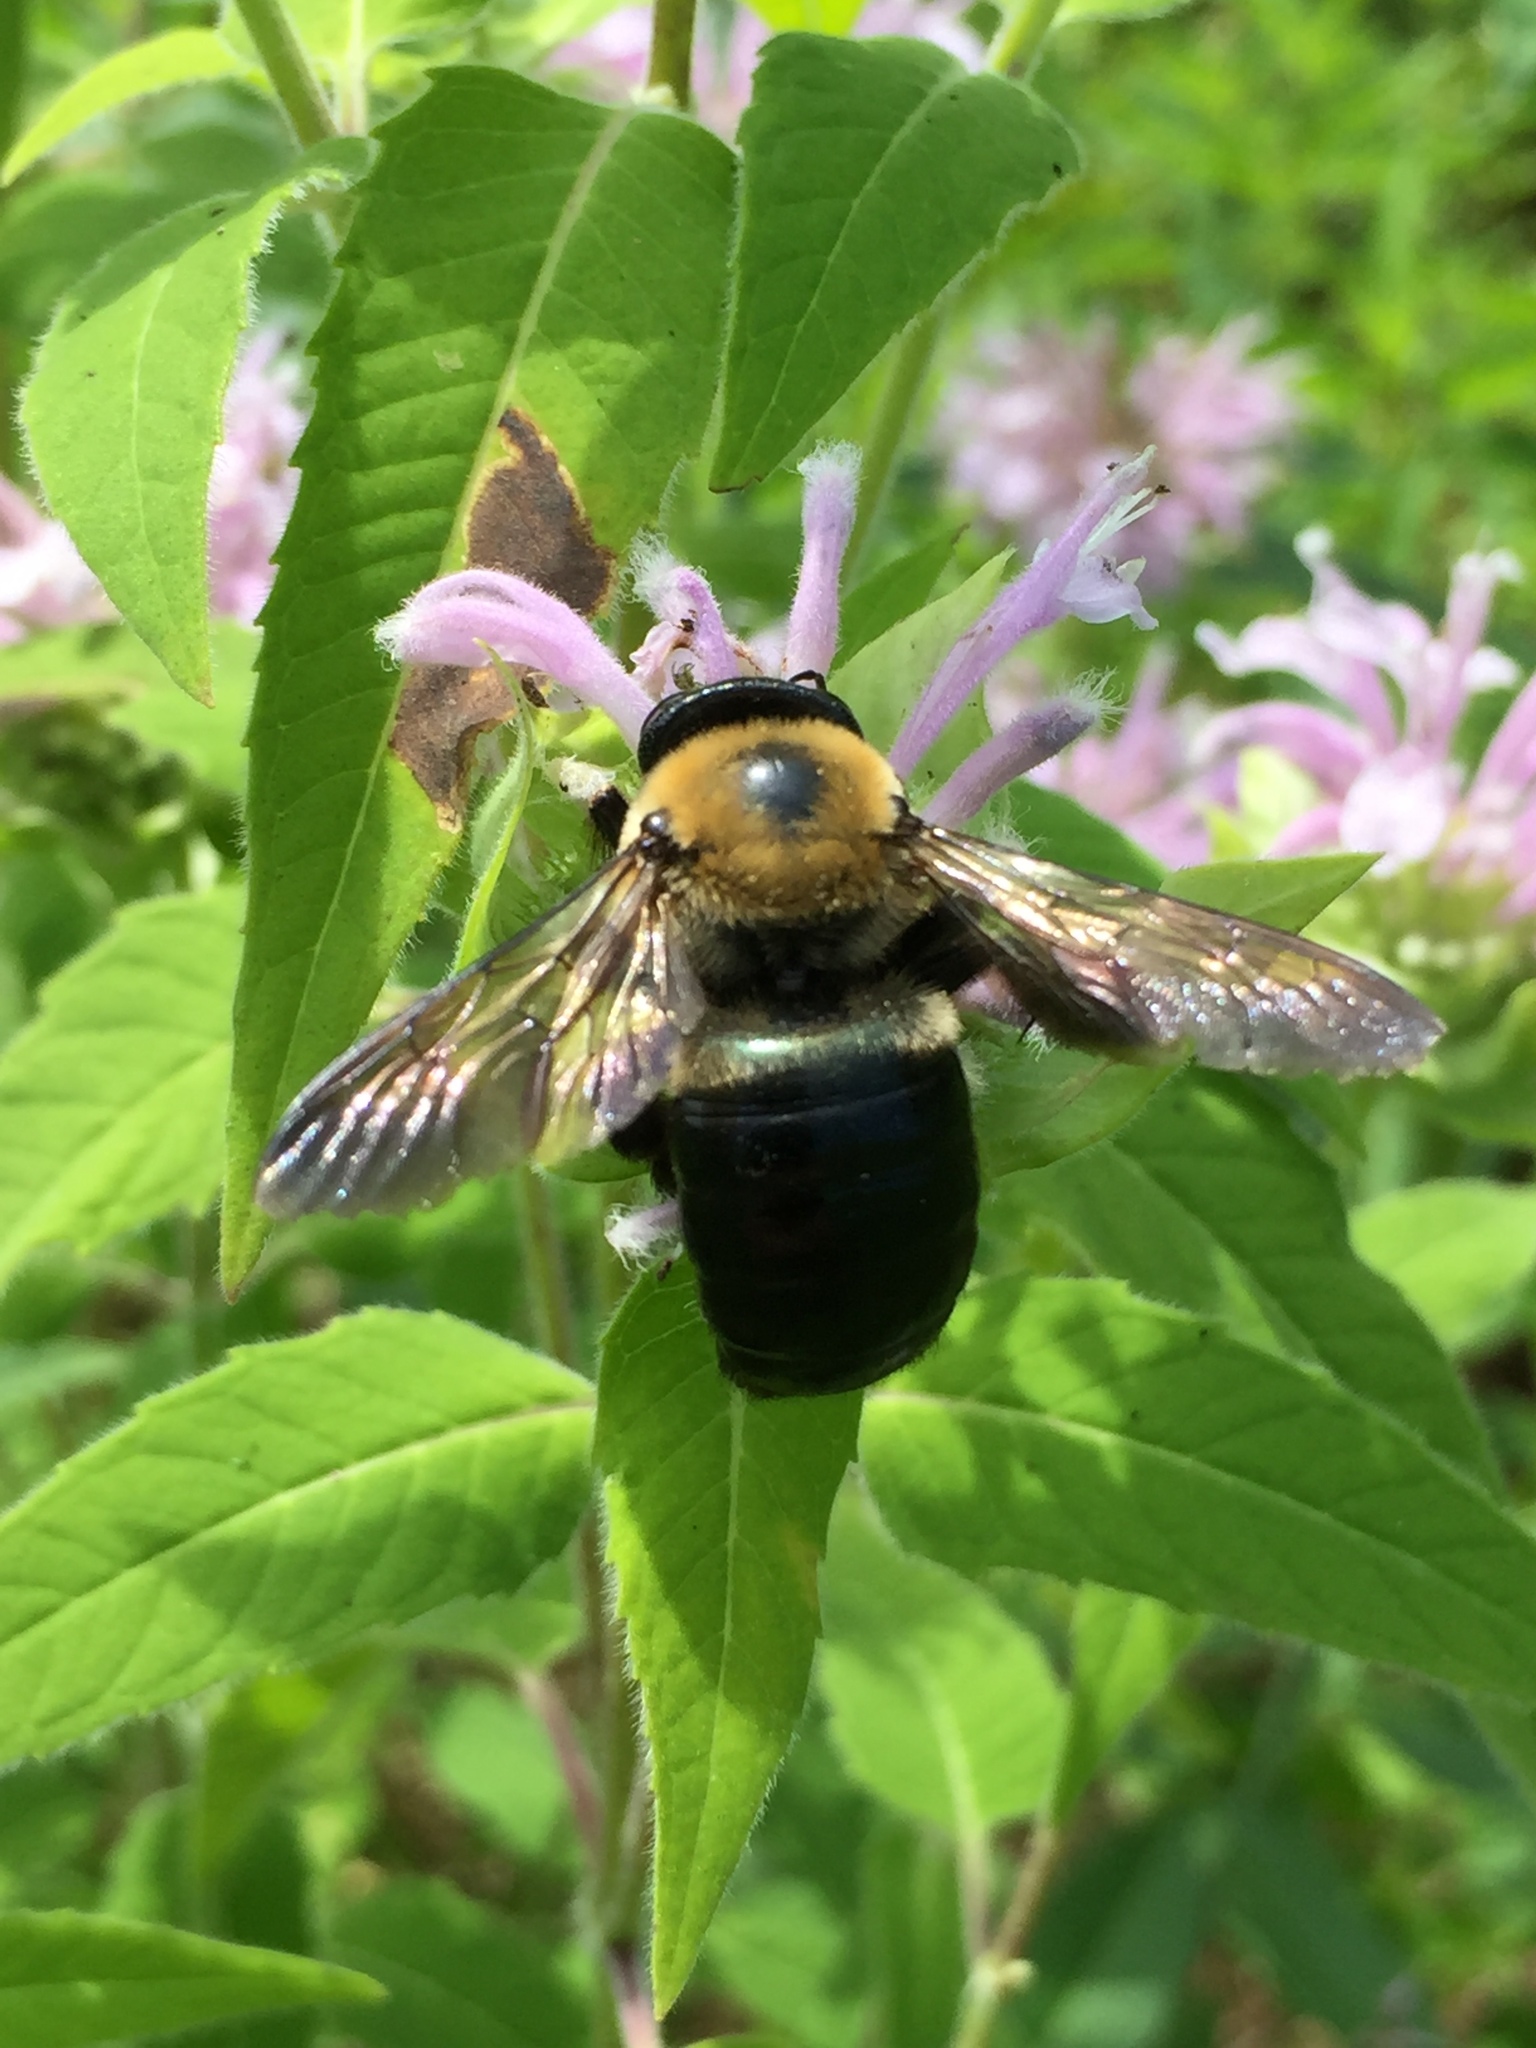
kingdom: Animalia
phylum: Arthropoda
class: Insecta
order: Hymenoptera
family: Apidae
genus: Xylocopa
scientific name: Xylocopa virginica
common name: Carpenter bee
